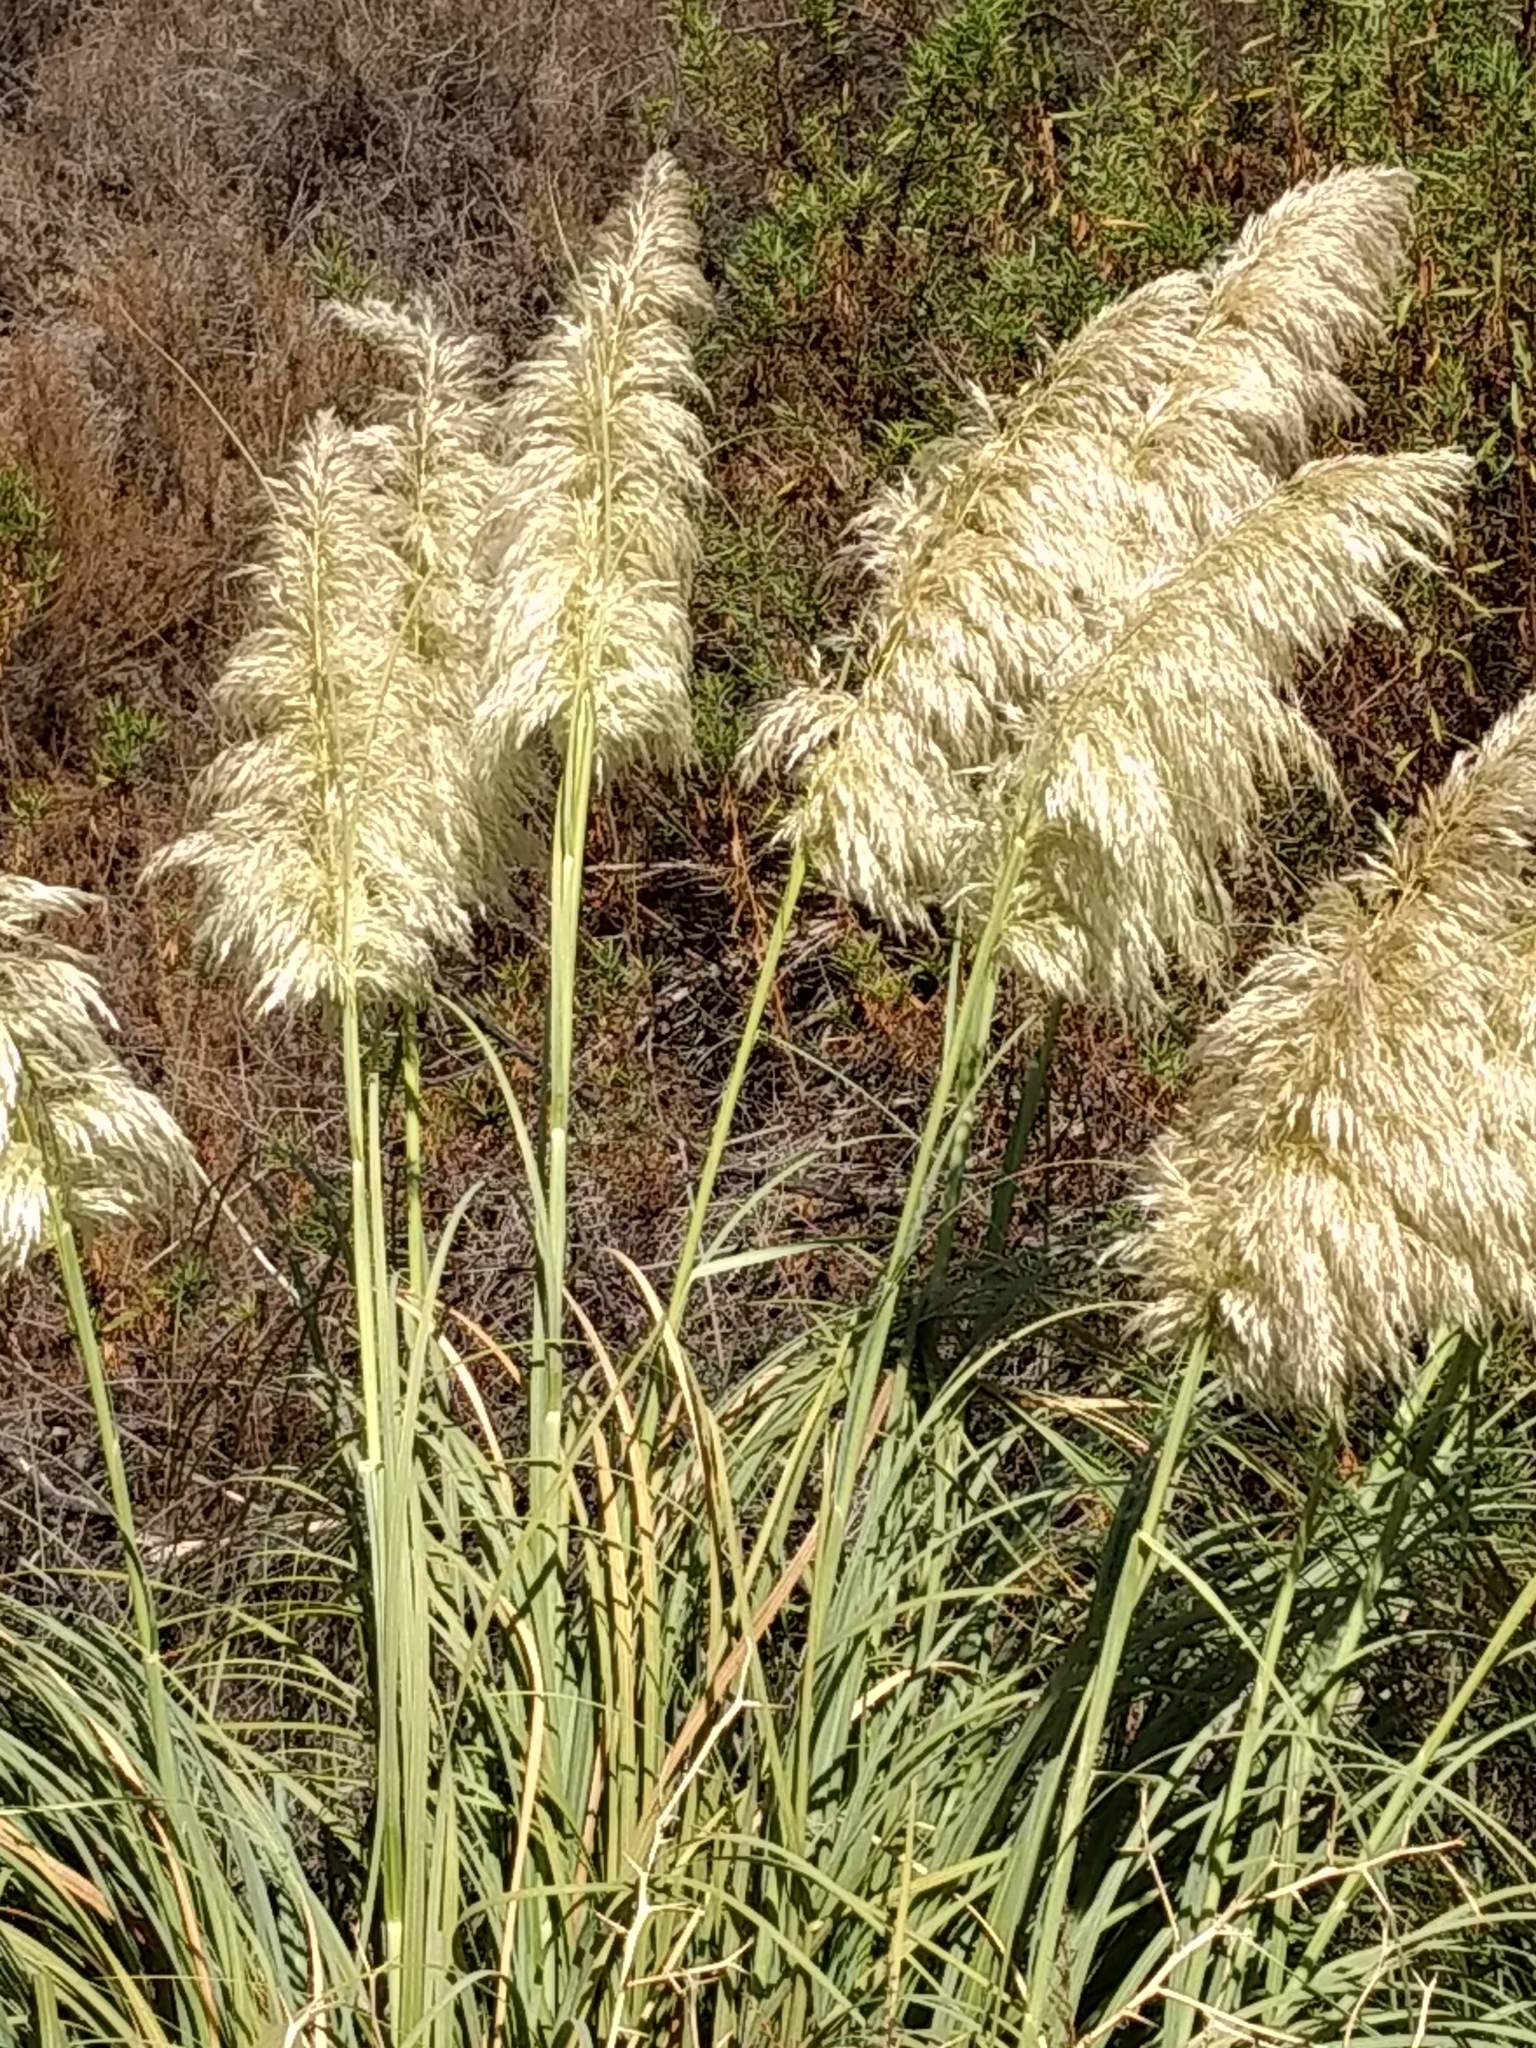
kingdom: Plantae
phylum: Tracheophyta
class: Liliopsida
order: Poales
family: Poaceae
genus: Cortaderia
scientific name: Cortaderia selloana
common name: Uruguayan pampas grass
